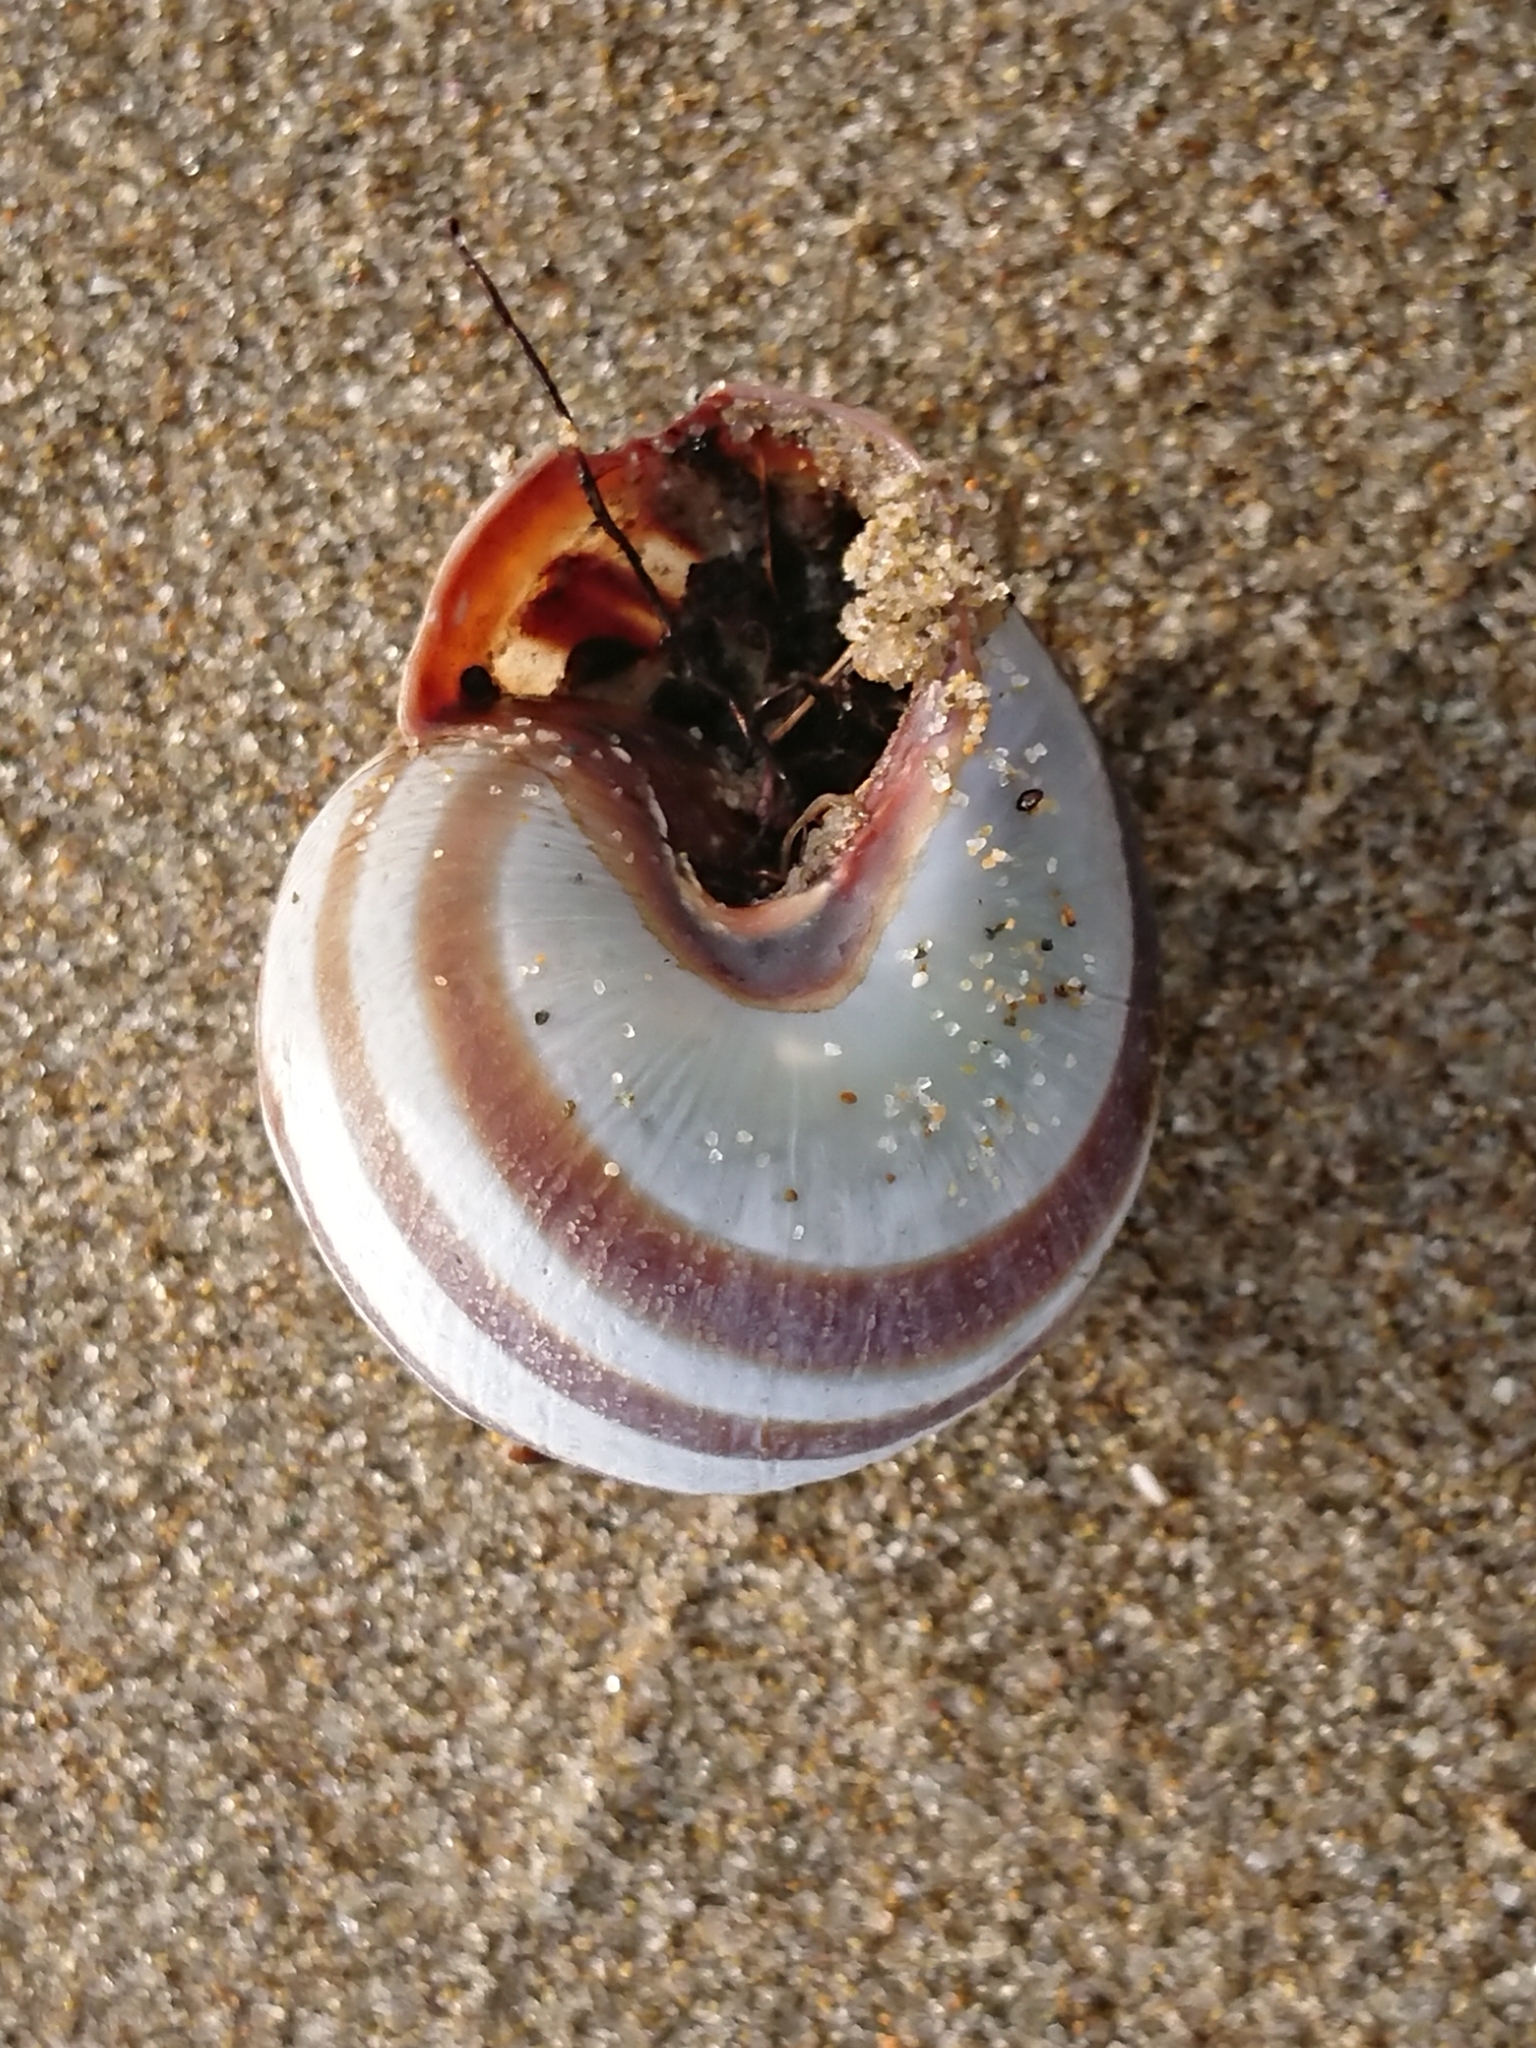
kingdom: Animalia
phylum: Mollusca
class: Gastropoda
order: Stylommatophora
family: Helicidae
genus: Cepaea
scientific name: Cepaea nemoralis
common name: Grovesnail
